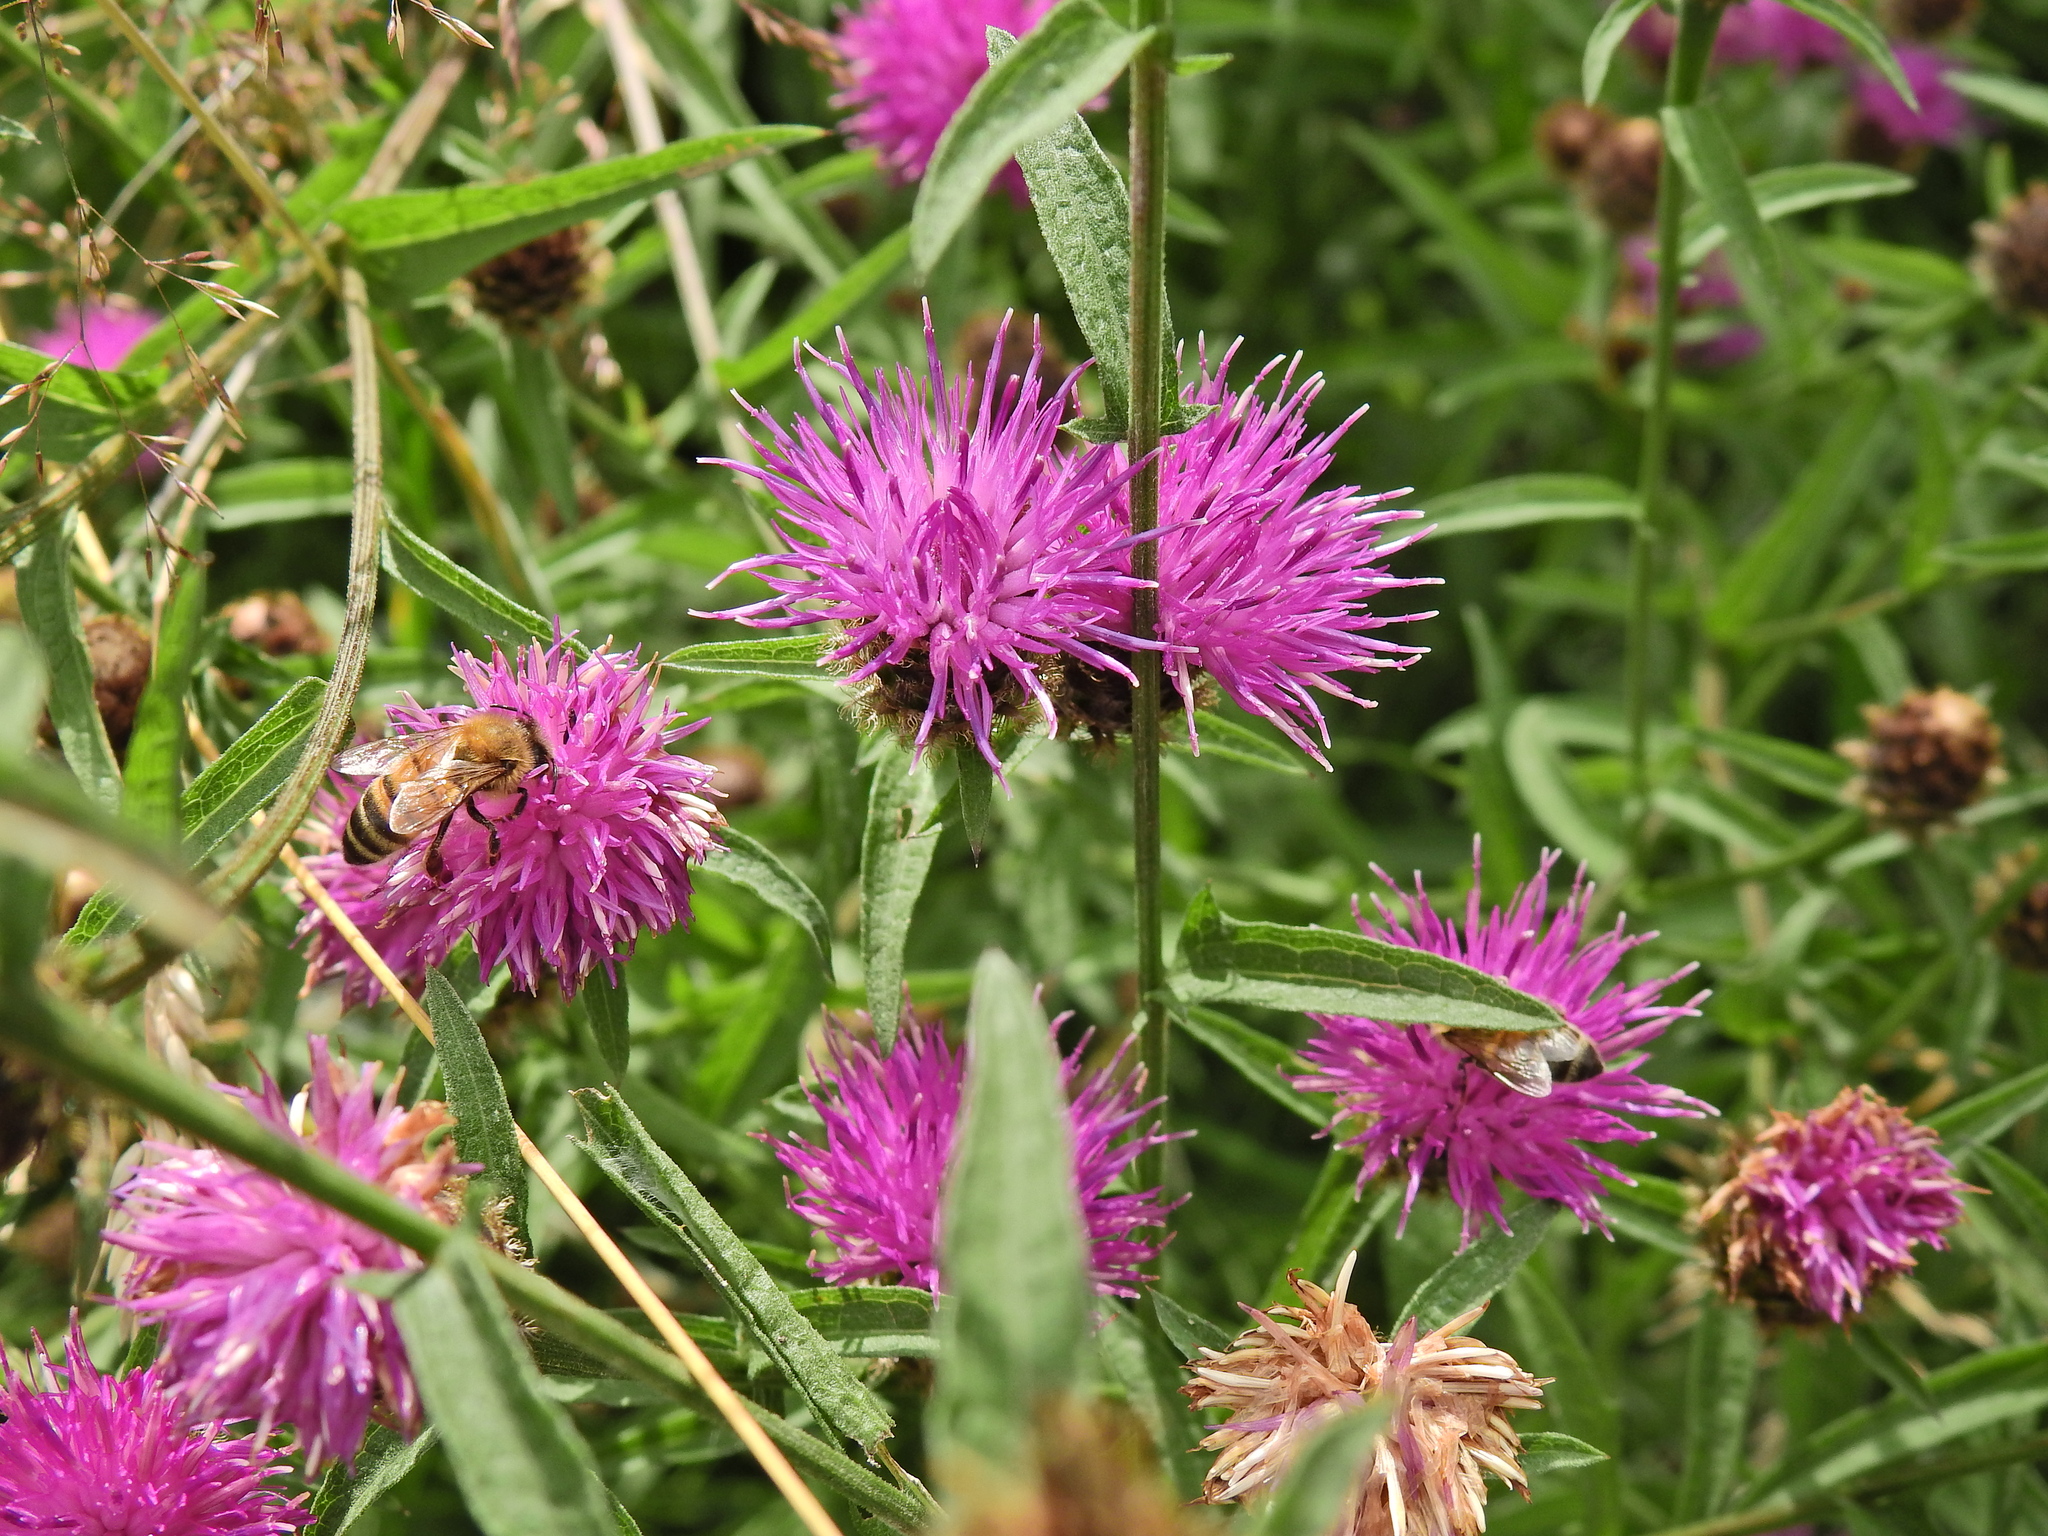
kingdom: Animalia
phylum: Arthropoda
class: Insecta
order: Hymenoptera
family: Apidae
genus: Apis
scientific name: Apis mellifera
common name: Honey bee
